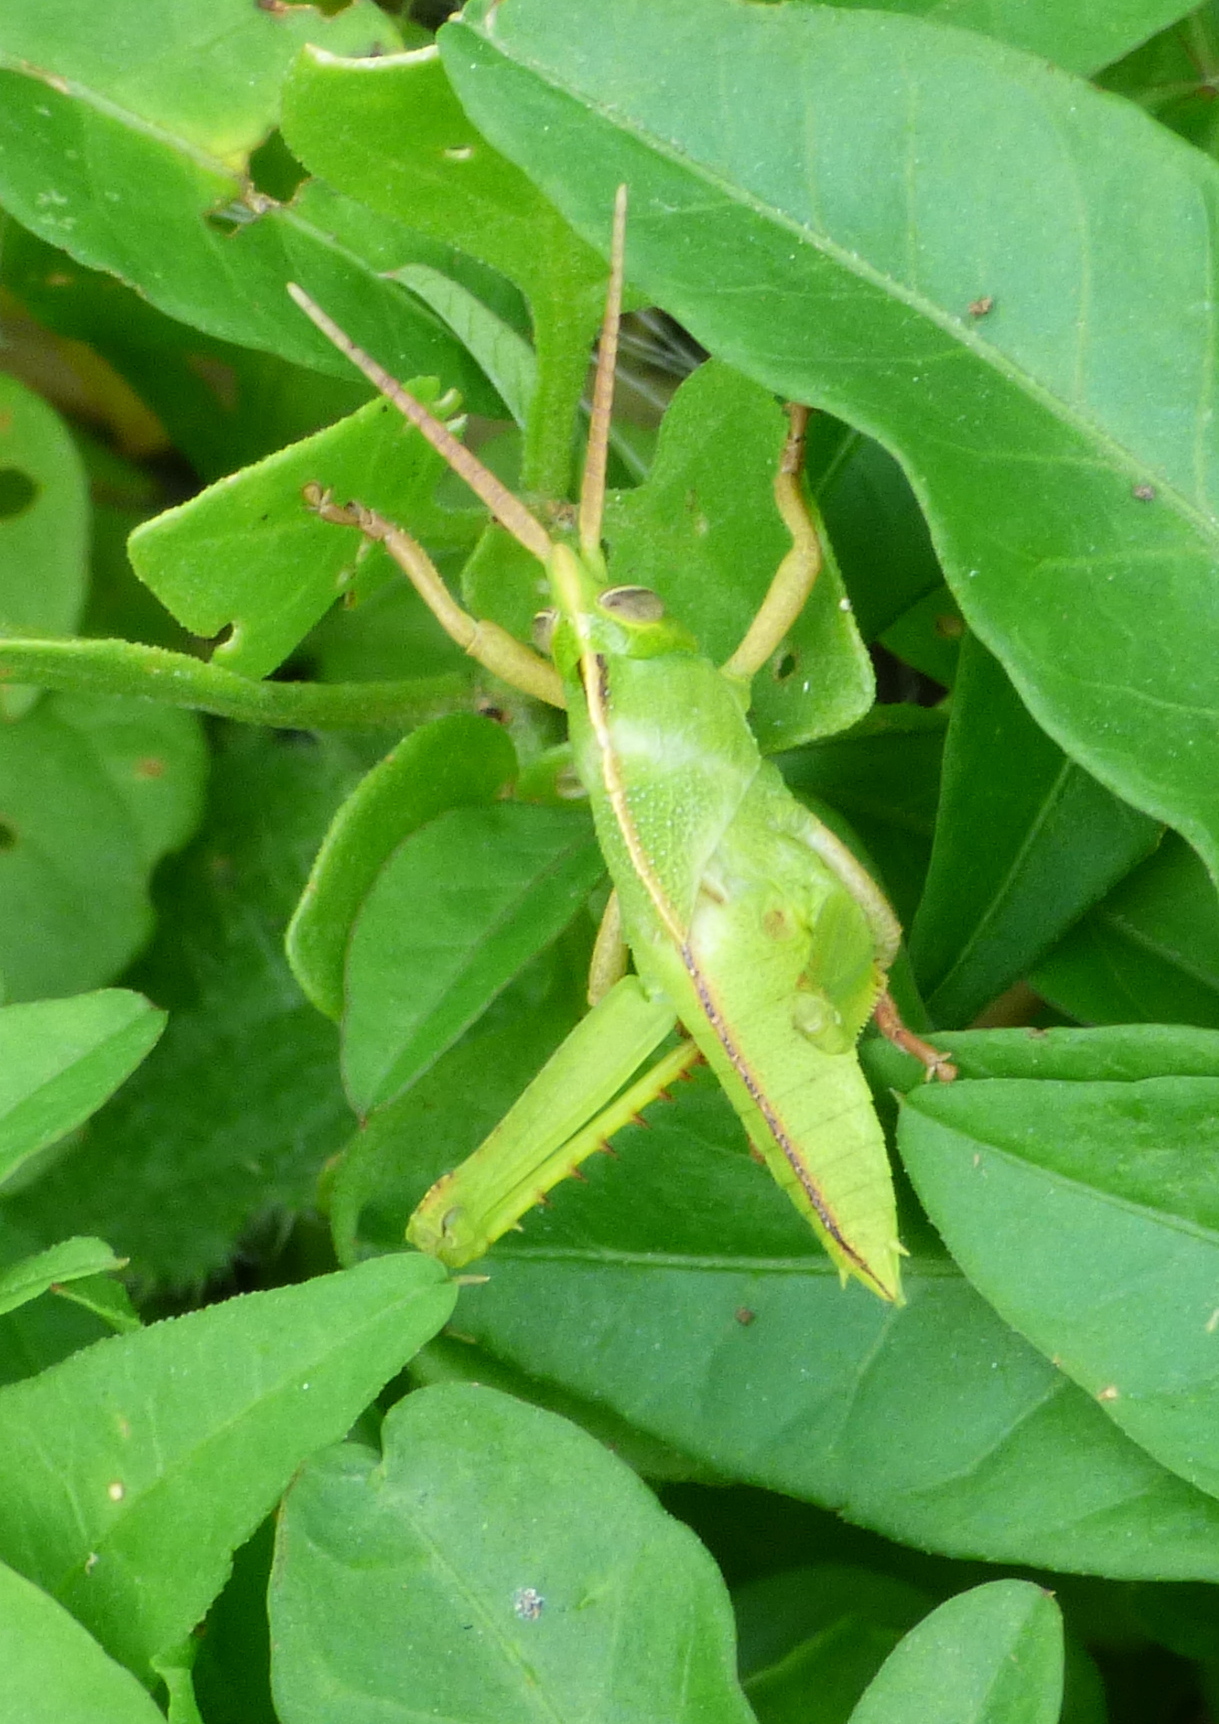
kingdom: Animalia
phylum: Arthropoda
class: Insecta
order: Orthoptera
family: Romaleidae
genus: Staleochlora
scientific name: Staleochlora viridicata
